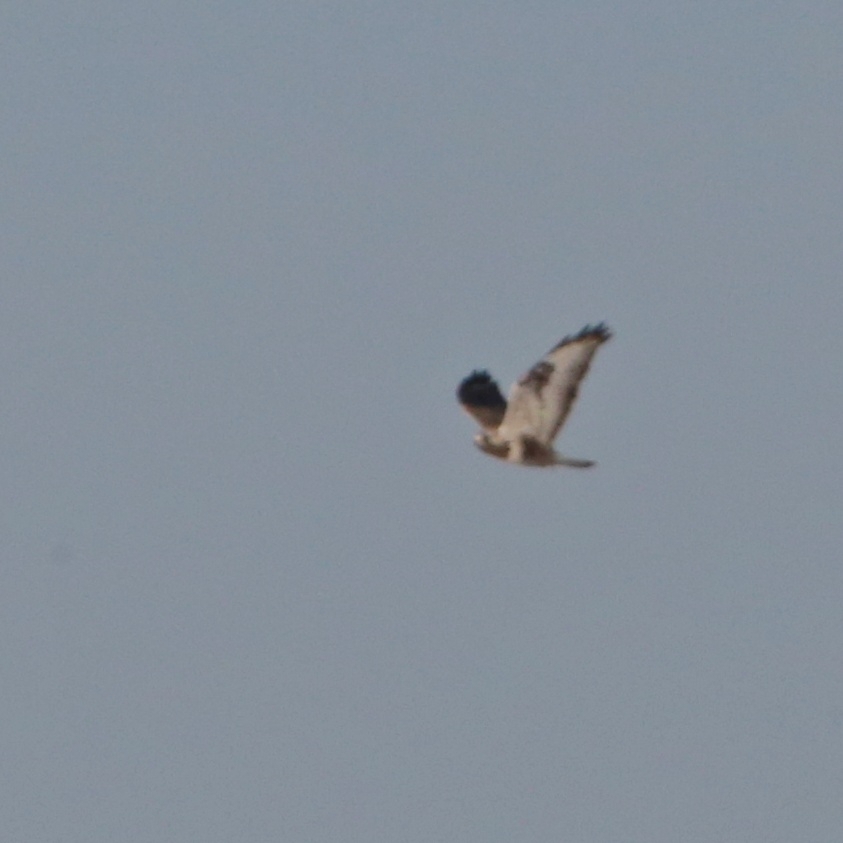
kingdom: Animalia
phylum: Chordata
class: Aves
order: Accipitriformes
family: Accipitridae
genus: Buteo
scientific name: Buteo lagopus
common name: Rough-legged buzzard
